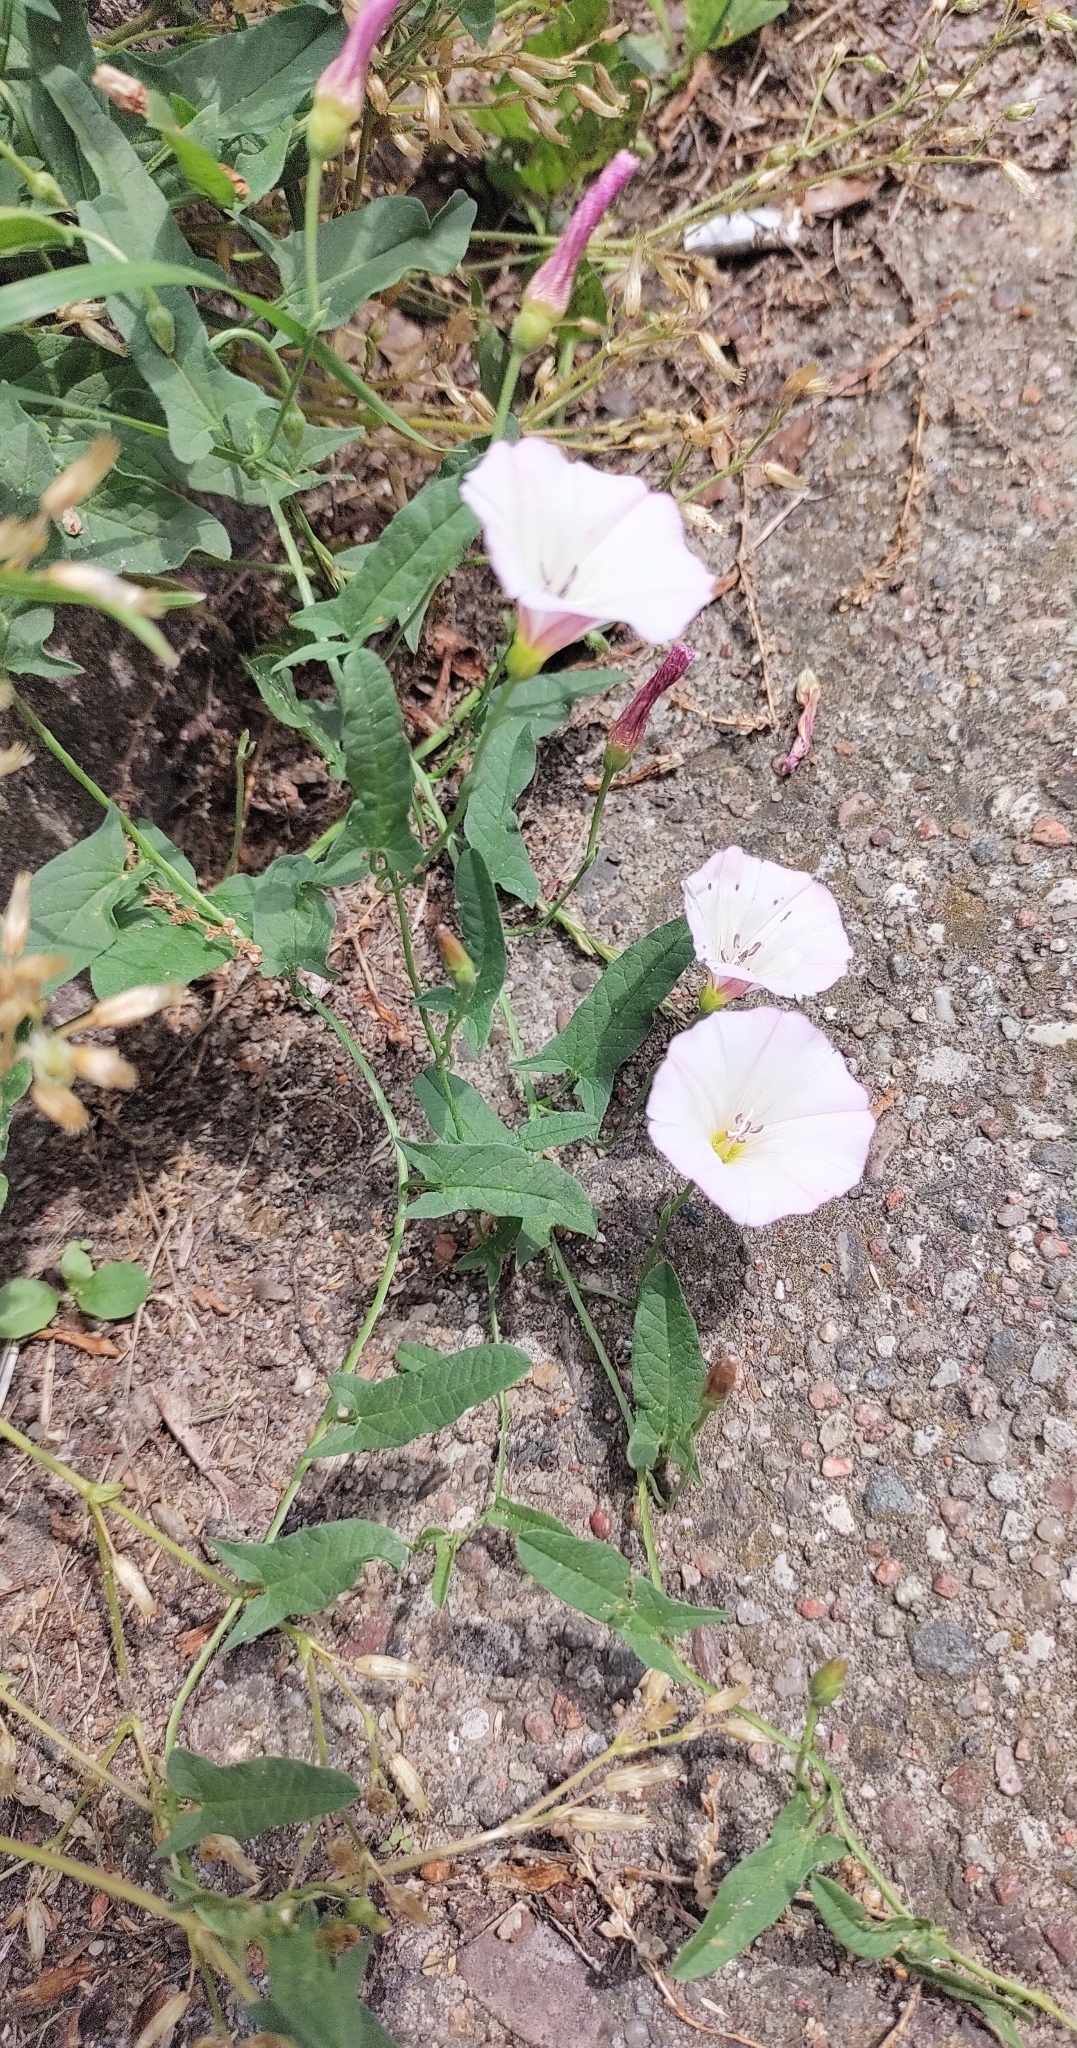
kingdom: Plantae
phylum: Tracheophyta
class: Magnoliopsida
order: Solanales
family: Convolvulaceae
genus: Convolvulus
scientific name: Convolvulus arvensis
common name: Field bindweed
